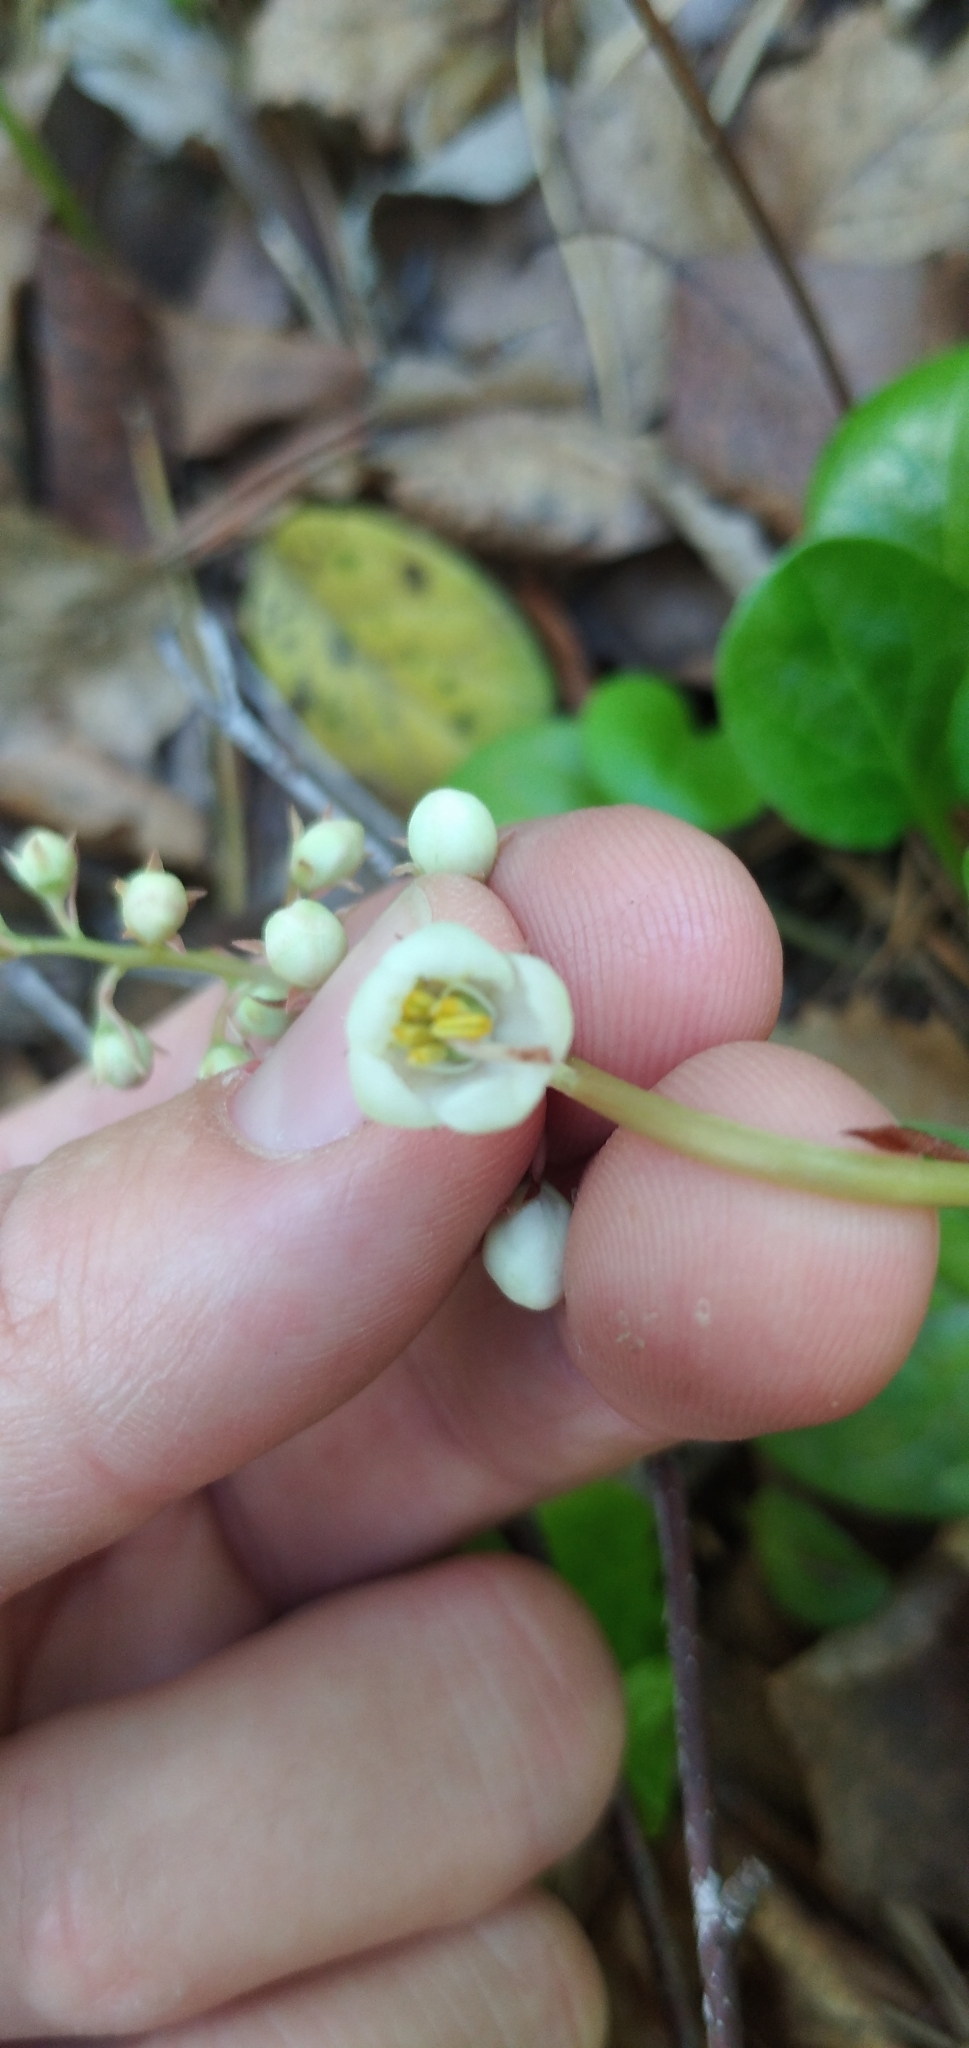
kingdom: Plantae
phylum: Tracheophyta
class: Magnoliopsida
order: Ericales
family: Ericaceae
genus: Pyrola
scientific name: Pyrola rotundifolia
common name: Round-leaved wintergreen
